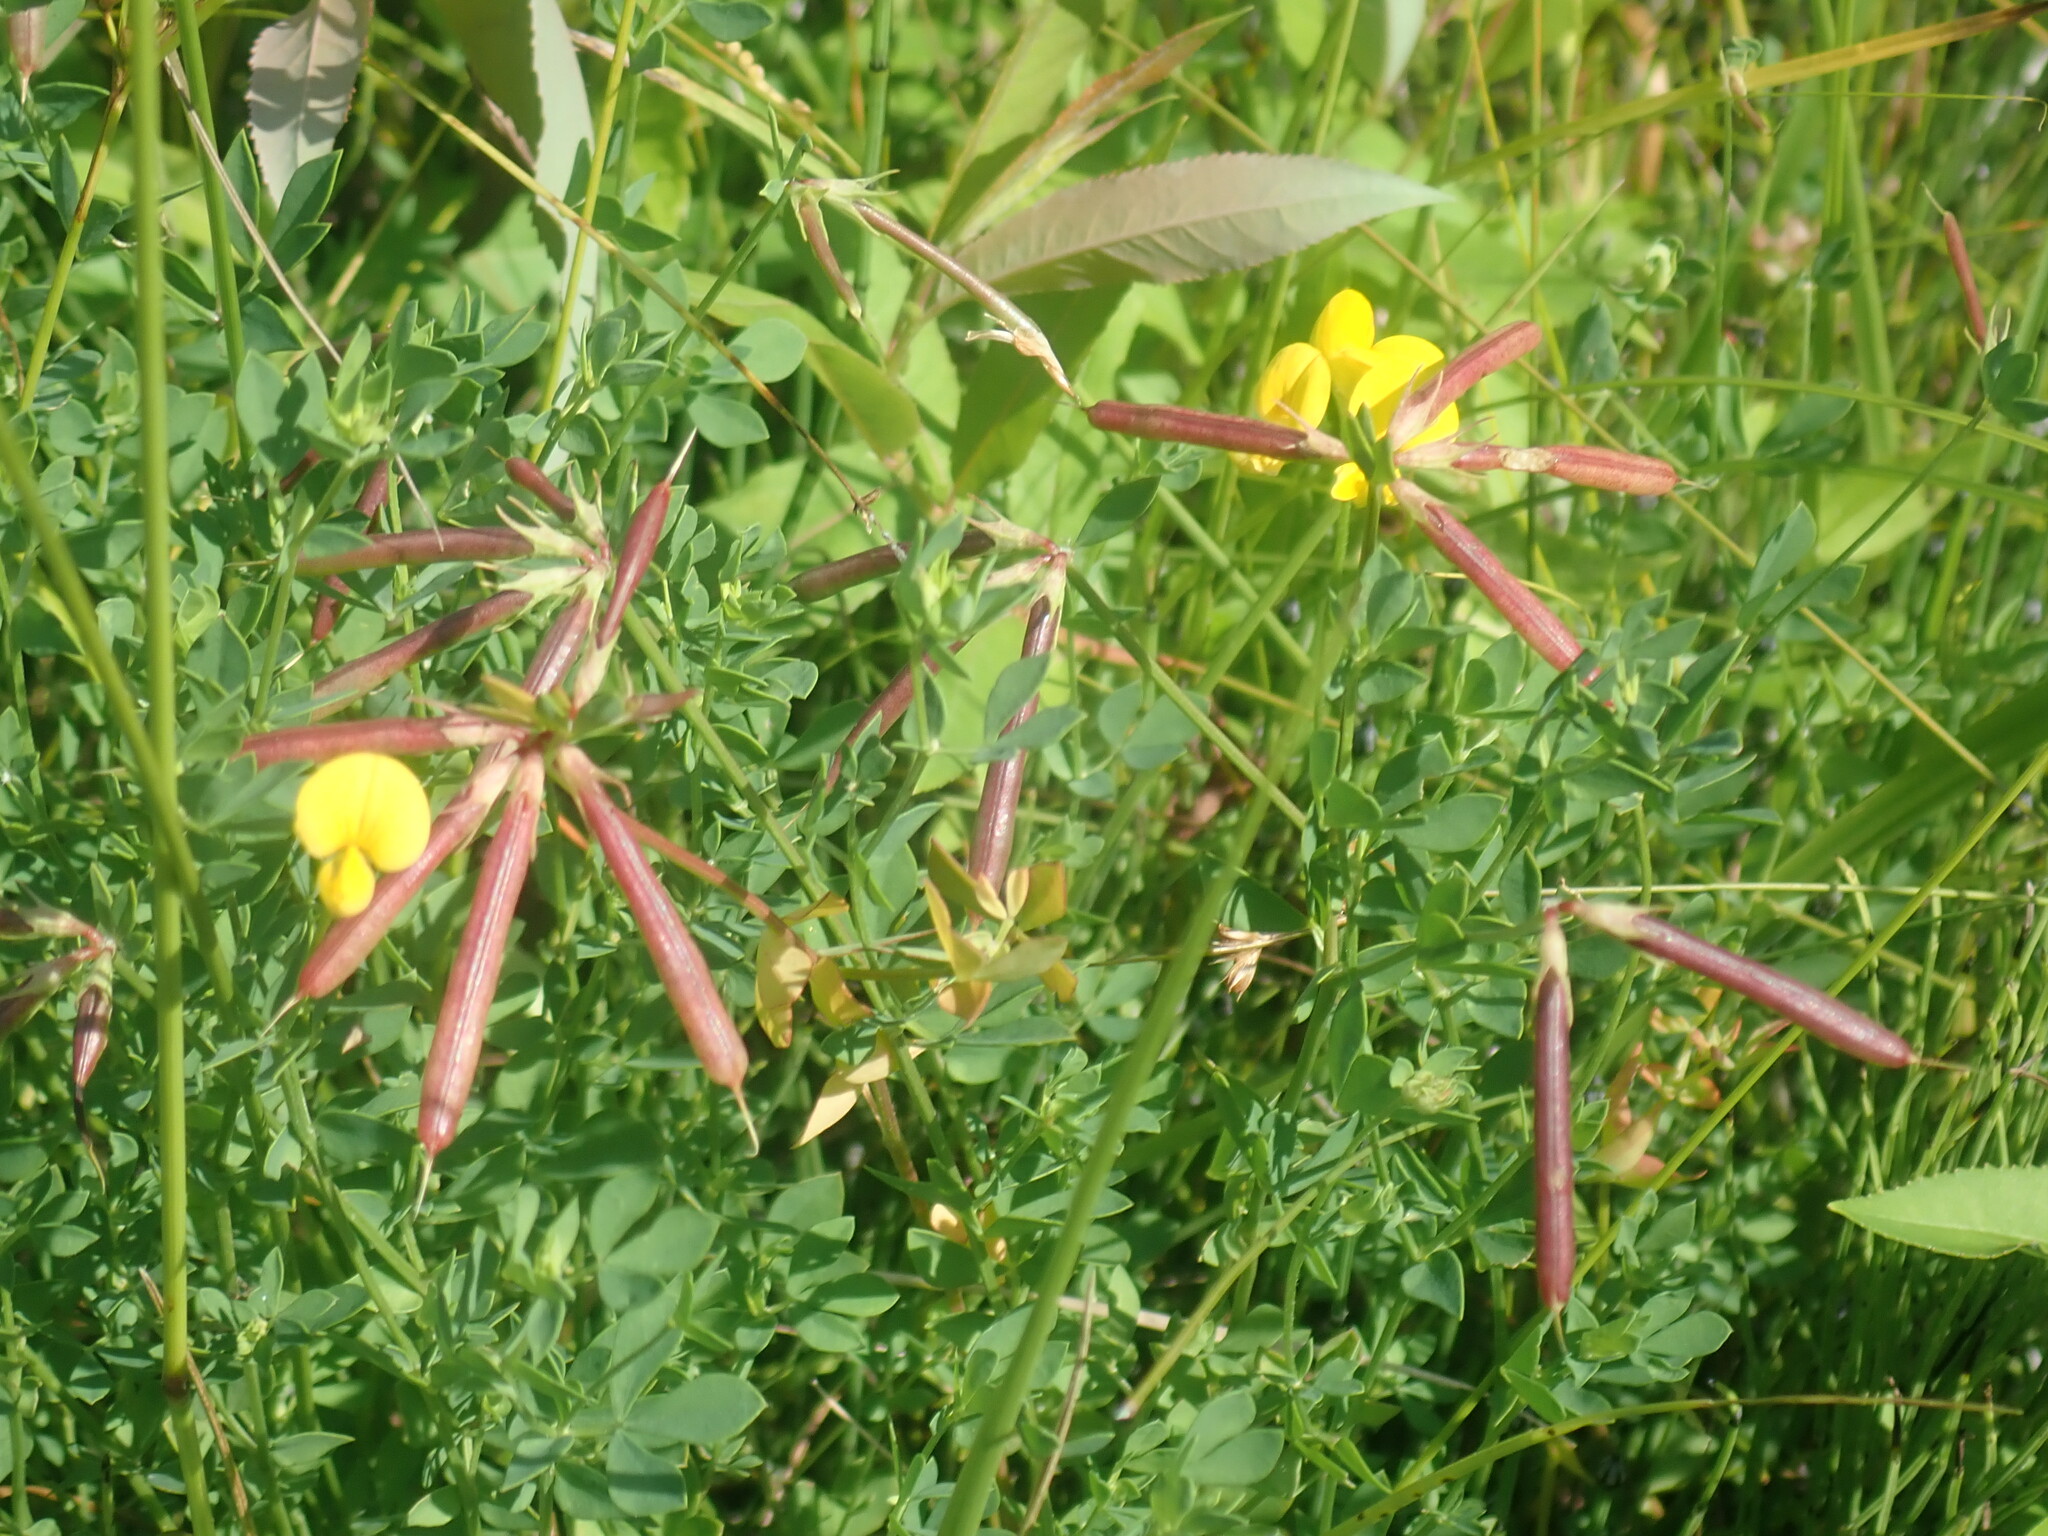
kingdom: Plantae
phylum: Tracheophyta
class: Magnoliopsida
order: Fabales
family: Fabaceae
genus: Lotus
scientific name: Lotus corniculatus
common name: Common bird's-foot-trefoil
